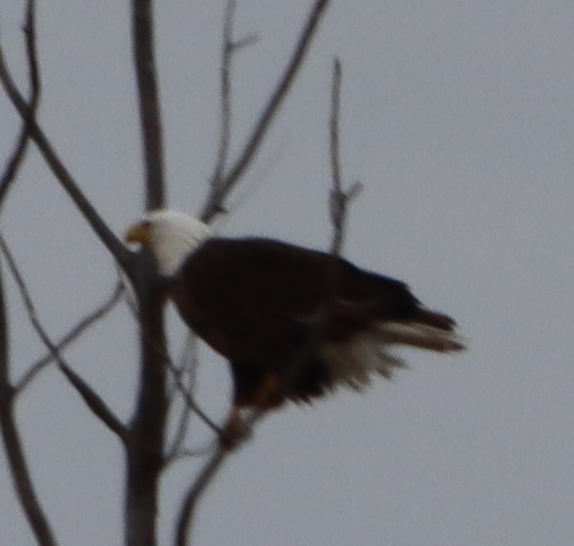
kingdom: Animalia
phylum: Chordata
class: Aves
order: Accipitriformes
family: Accipitridae
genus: Haliaeetus
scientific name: Haliaeetus leucocephalus
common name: Bald eagle
